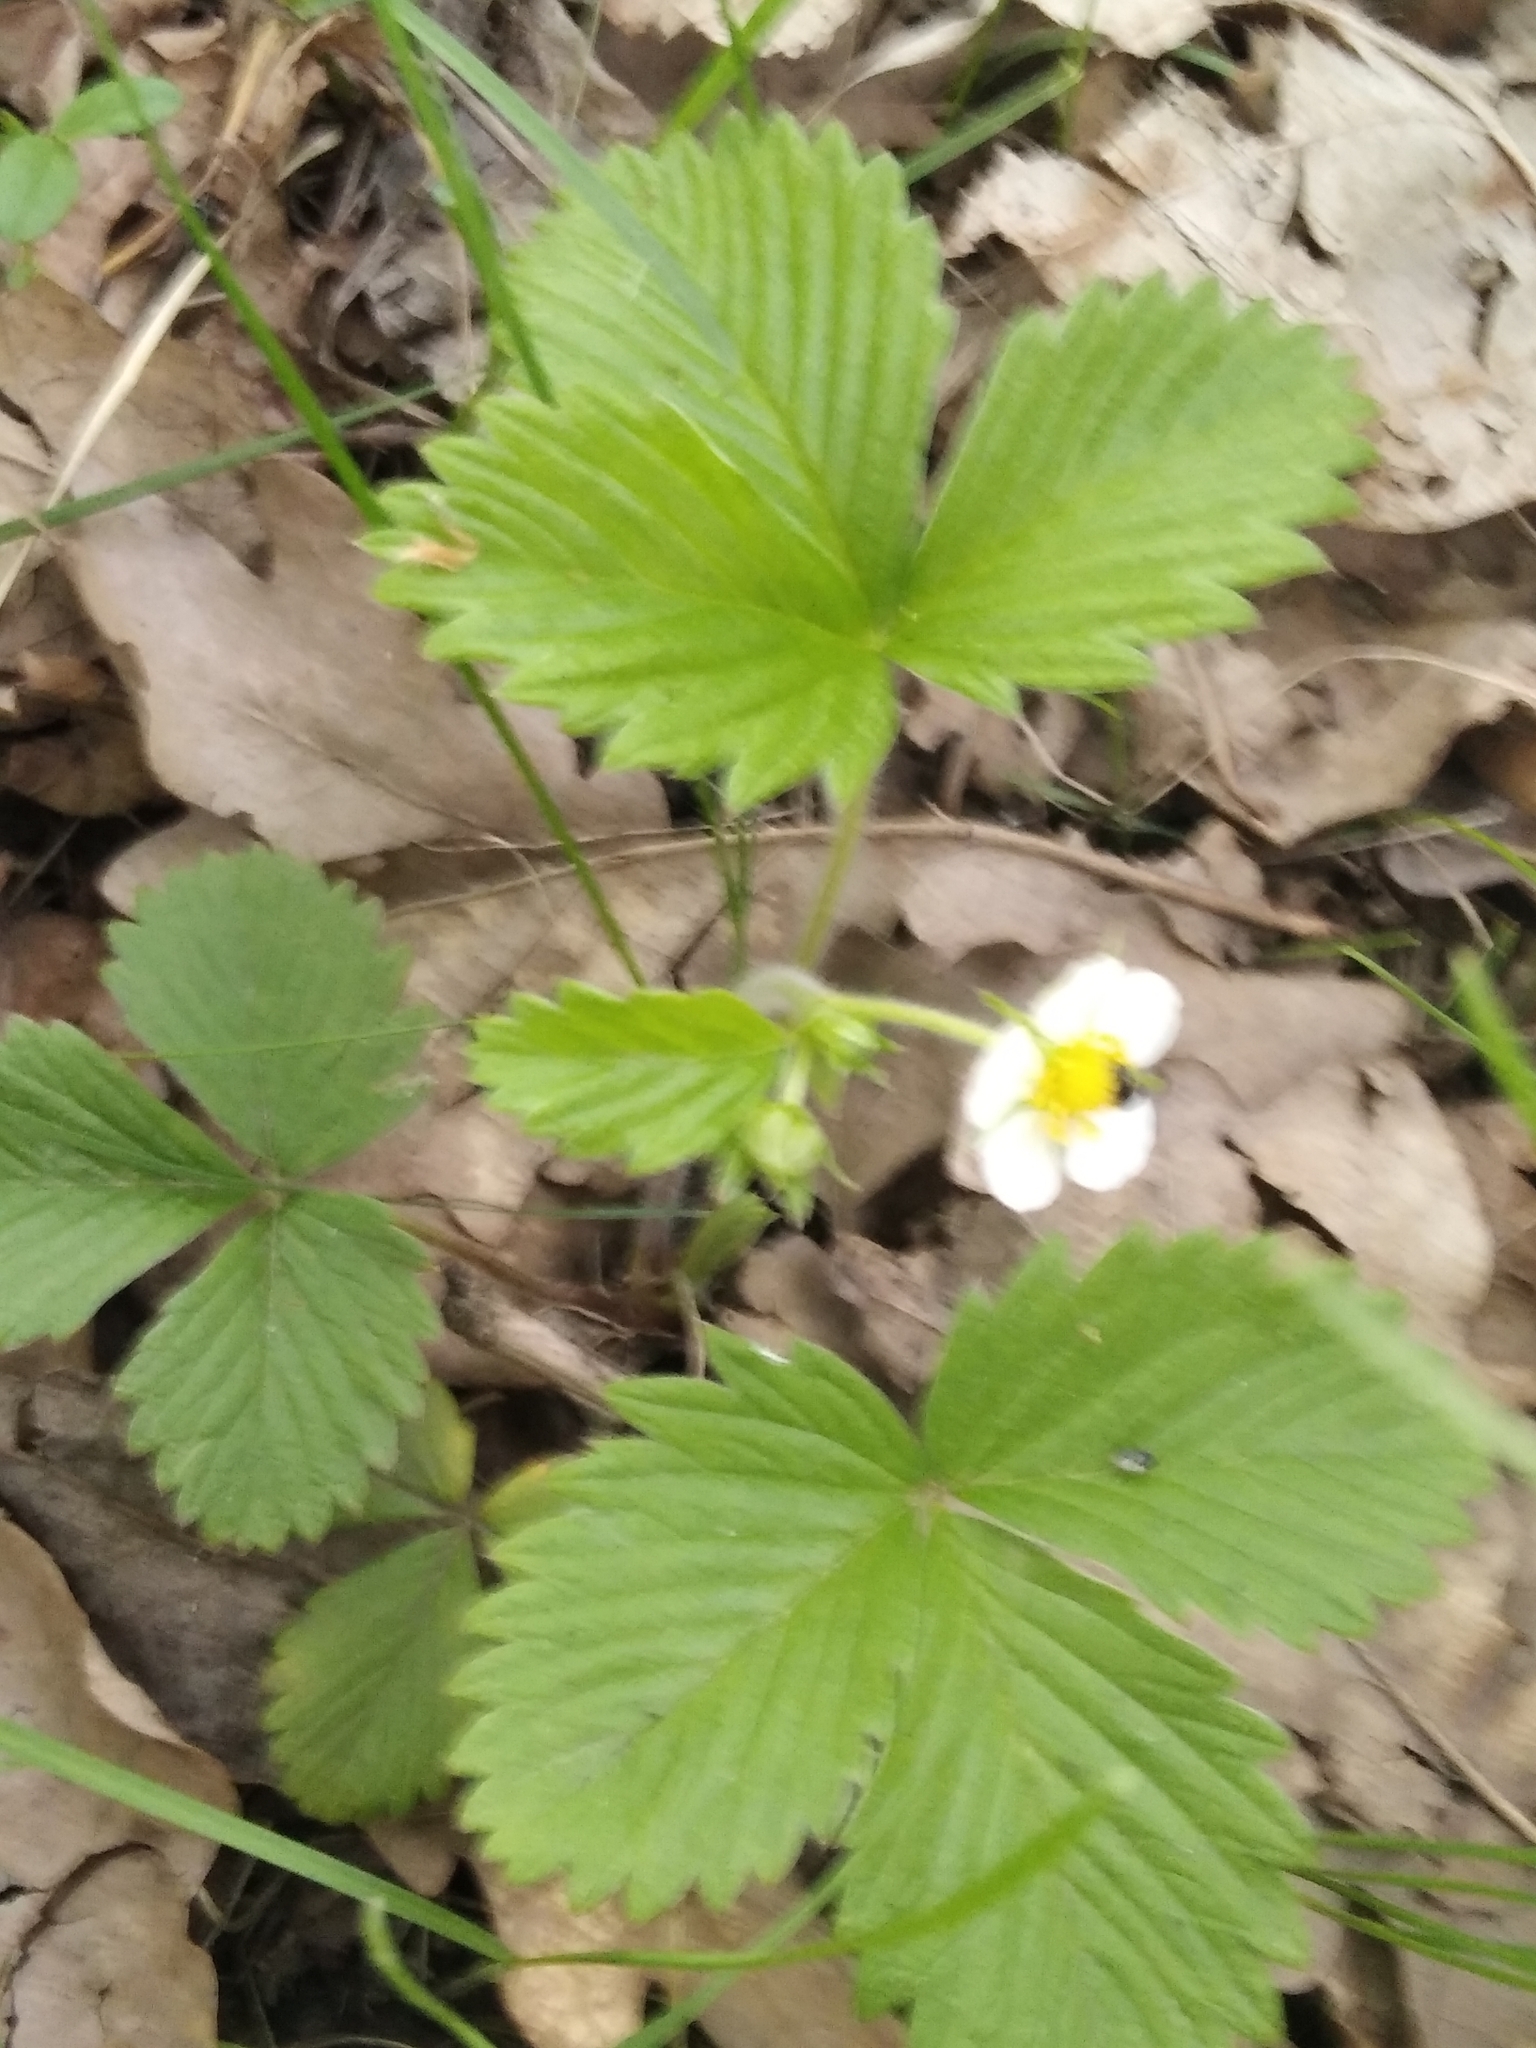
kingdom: Plantae
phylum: Tracheophyta
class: Magnoliopsida
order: Rosales
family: Rosaceae
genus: Fragaria
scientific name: Fragaria vesca
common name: Wild strawberry
